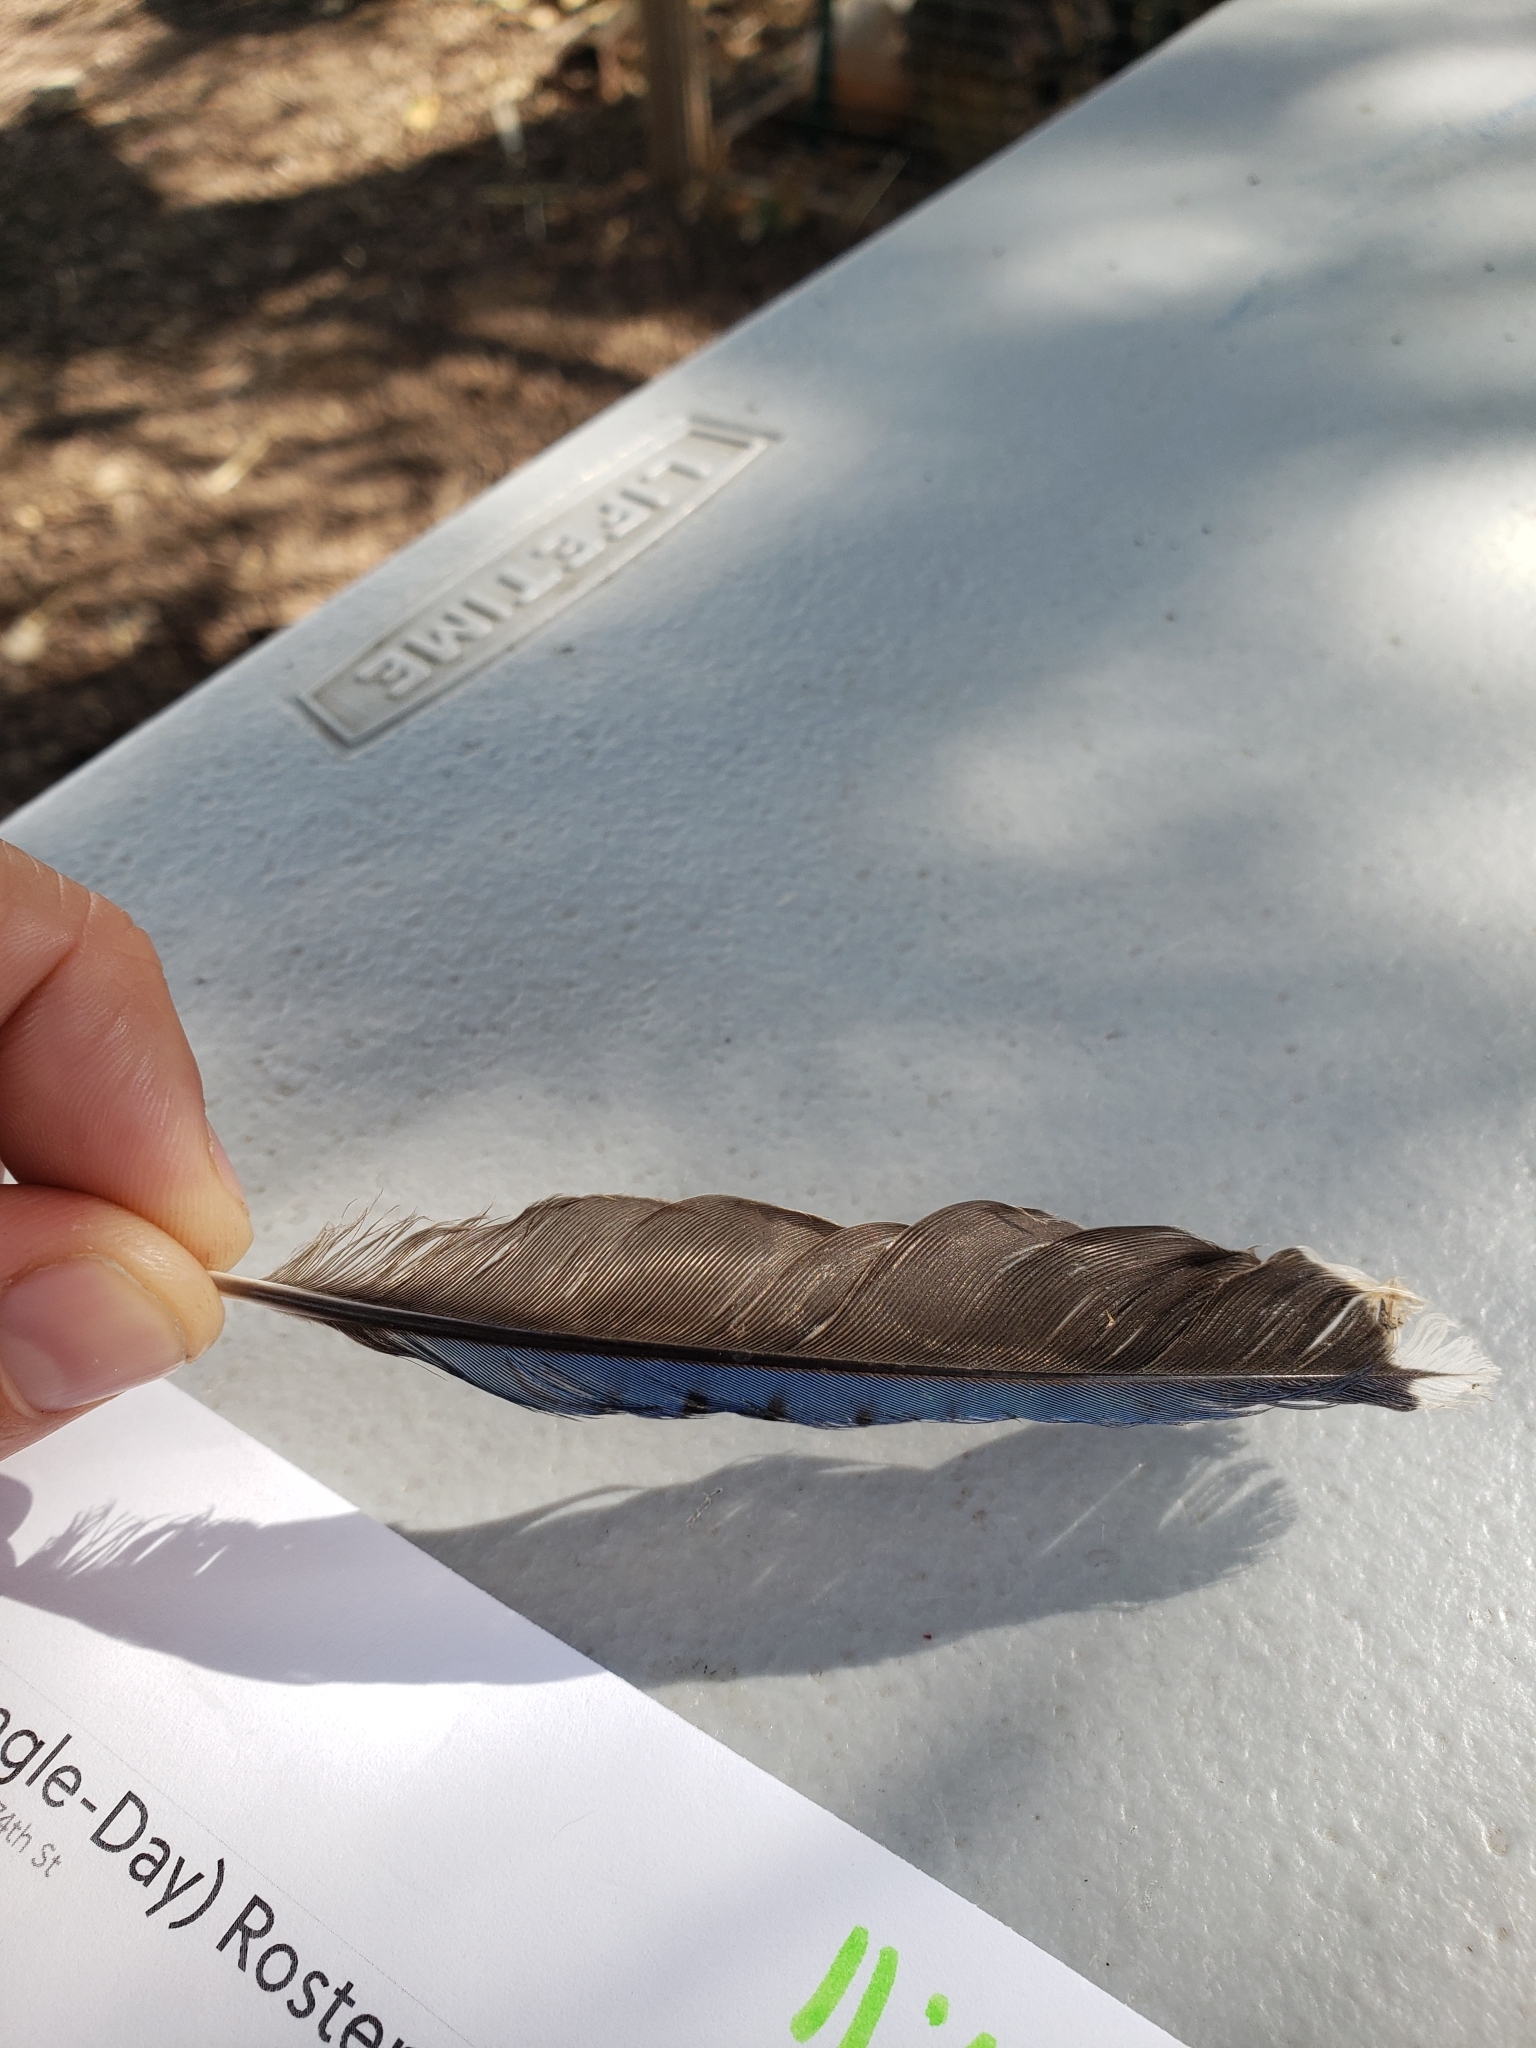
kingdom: Animalia
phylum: Chordata
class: Aves
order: Passeriformes
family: Corvidae
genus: Cyanocitta
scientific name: Cyanocitta cristata
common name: Blue jay
